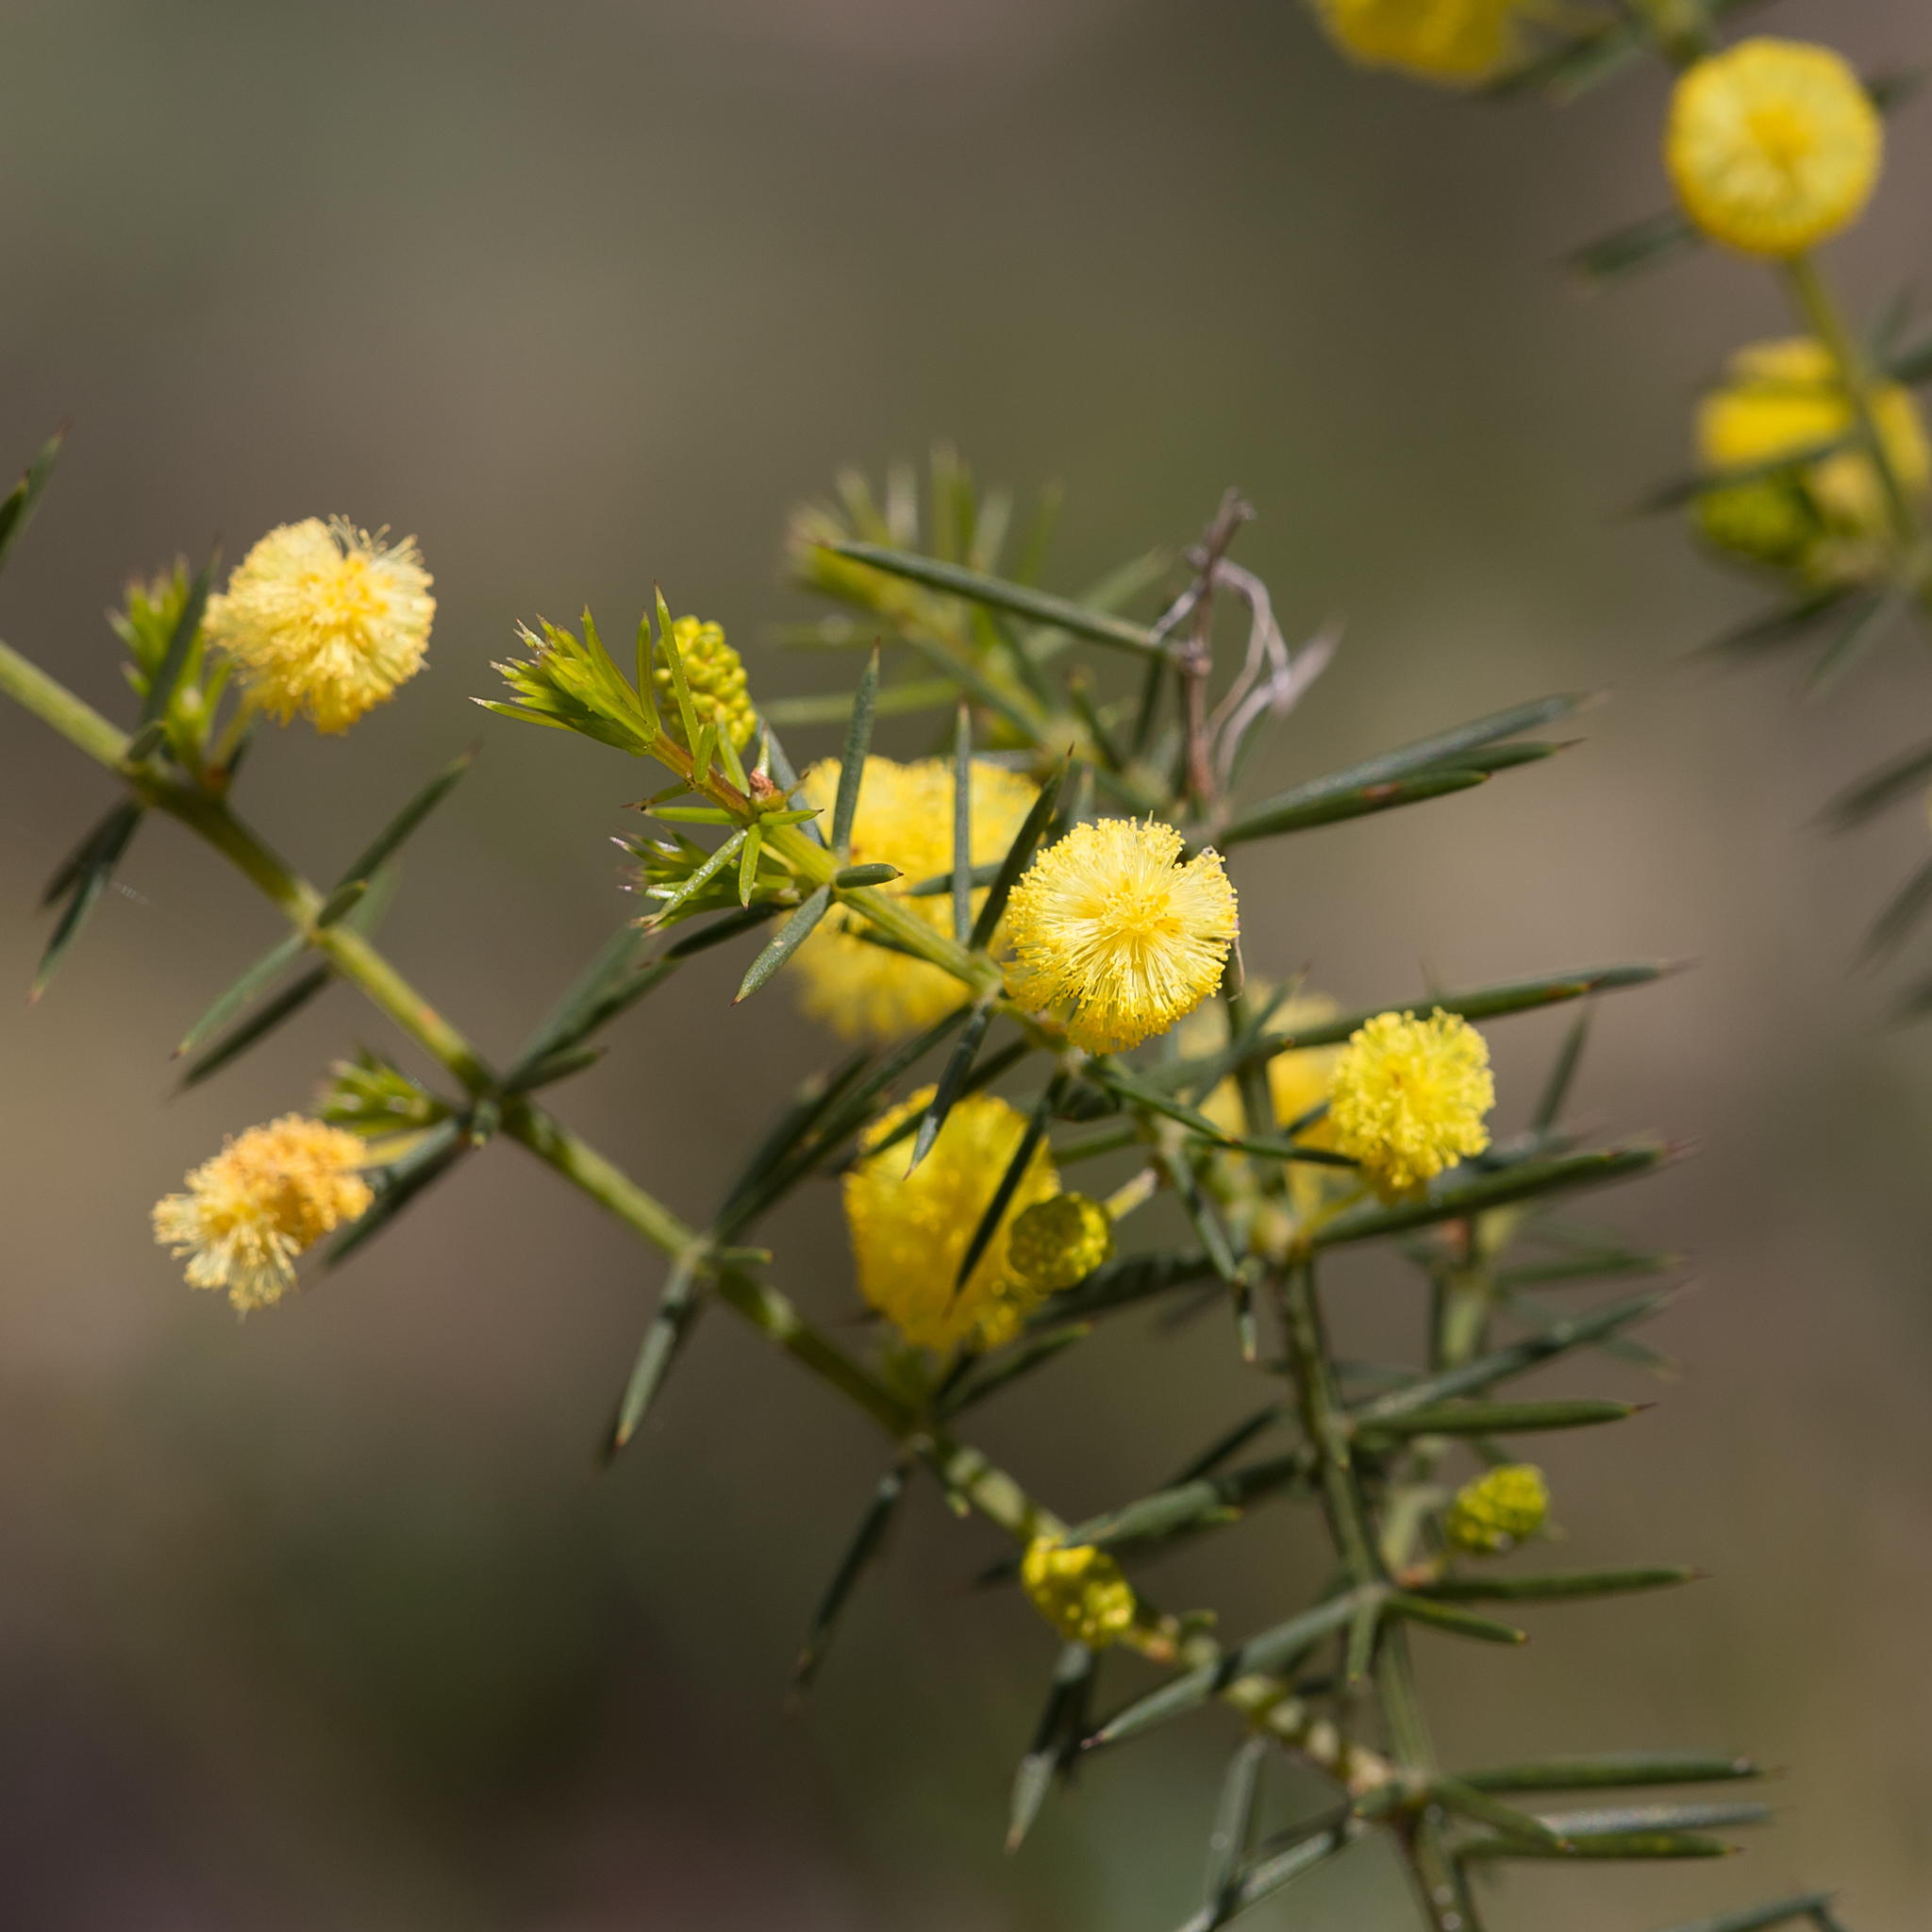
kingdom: Plantae
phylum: Tracheophyta
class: Magnoliopsida
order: Fabales
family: Fabaceae
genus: Acacia
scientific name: Acacia verticillata
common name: Prickly moses
